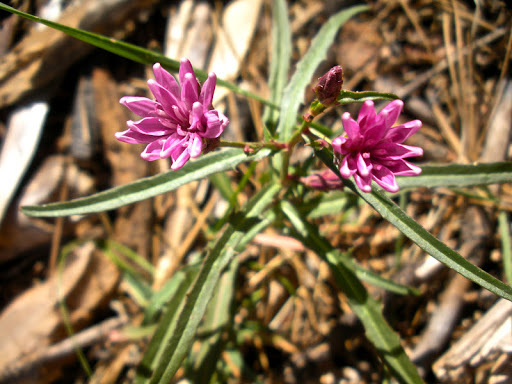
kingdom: Plantae
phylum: Tracheophyta
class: Magnoliopsida
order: Asterales
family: Asteraceae
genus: Stephanomeria
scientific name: Stephanomeria lactucina
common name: Large-flowered wirelettuce
